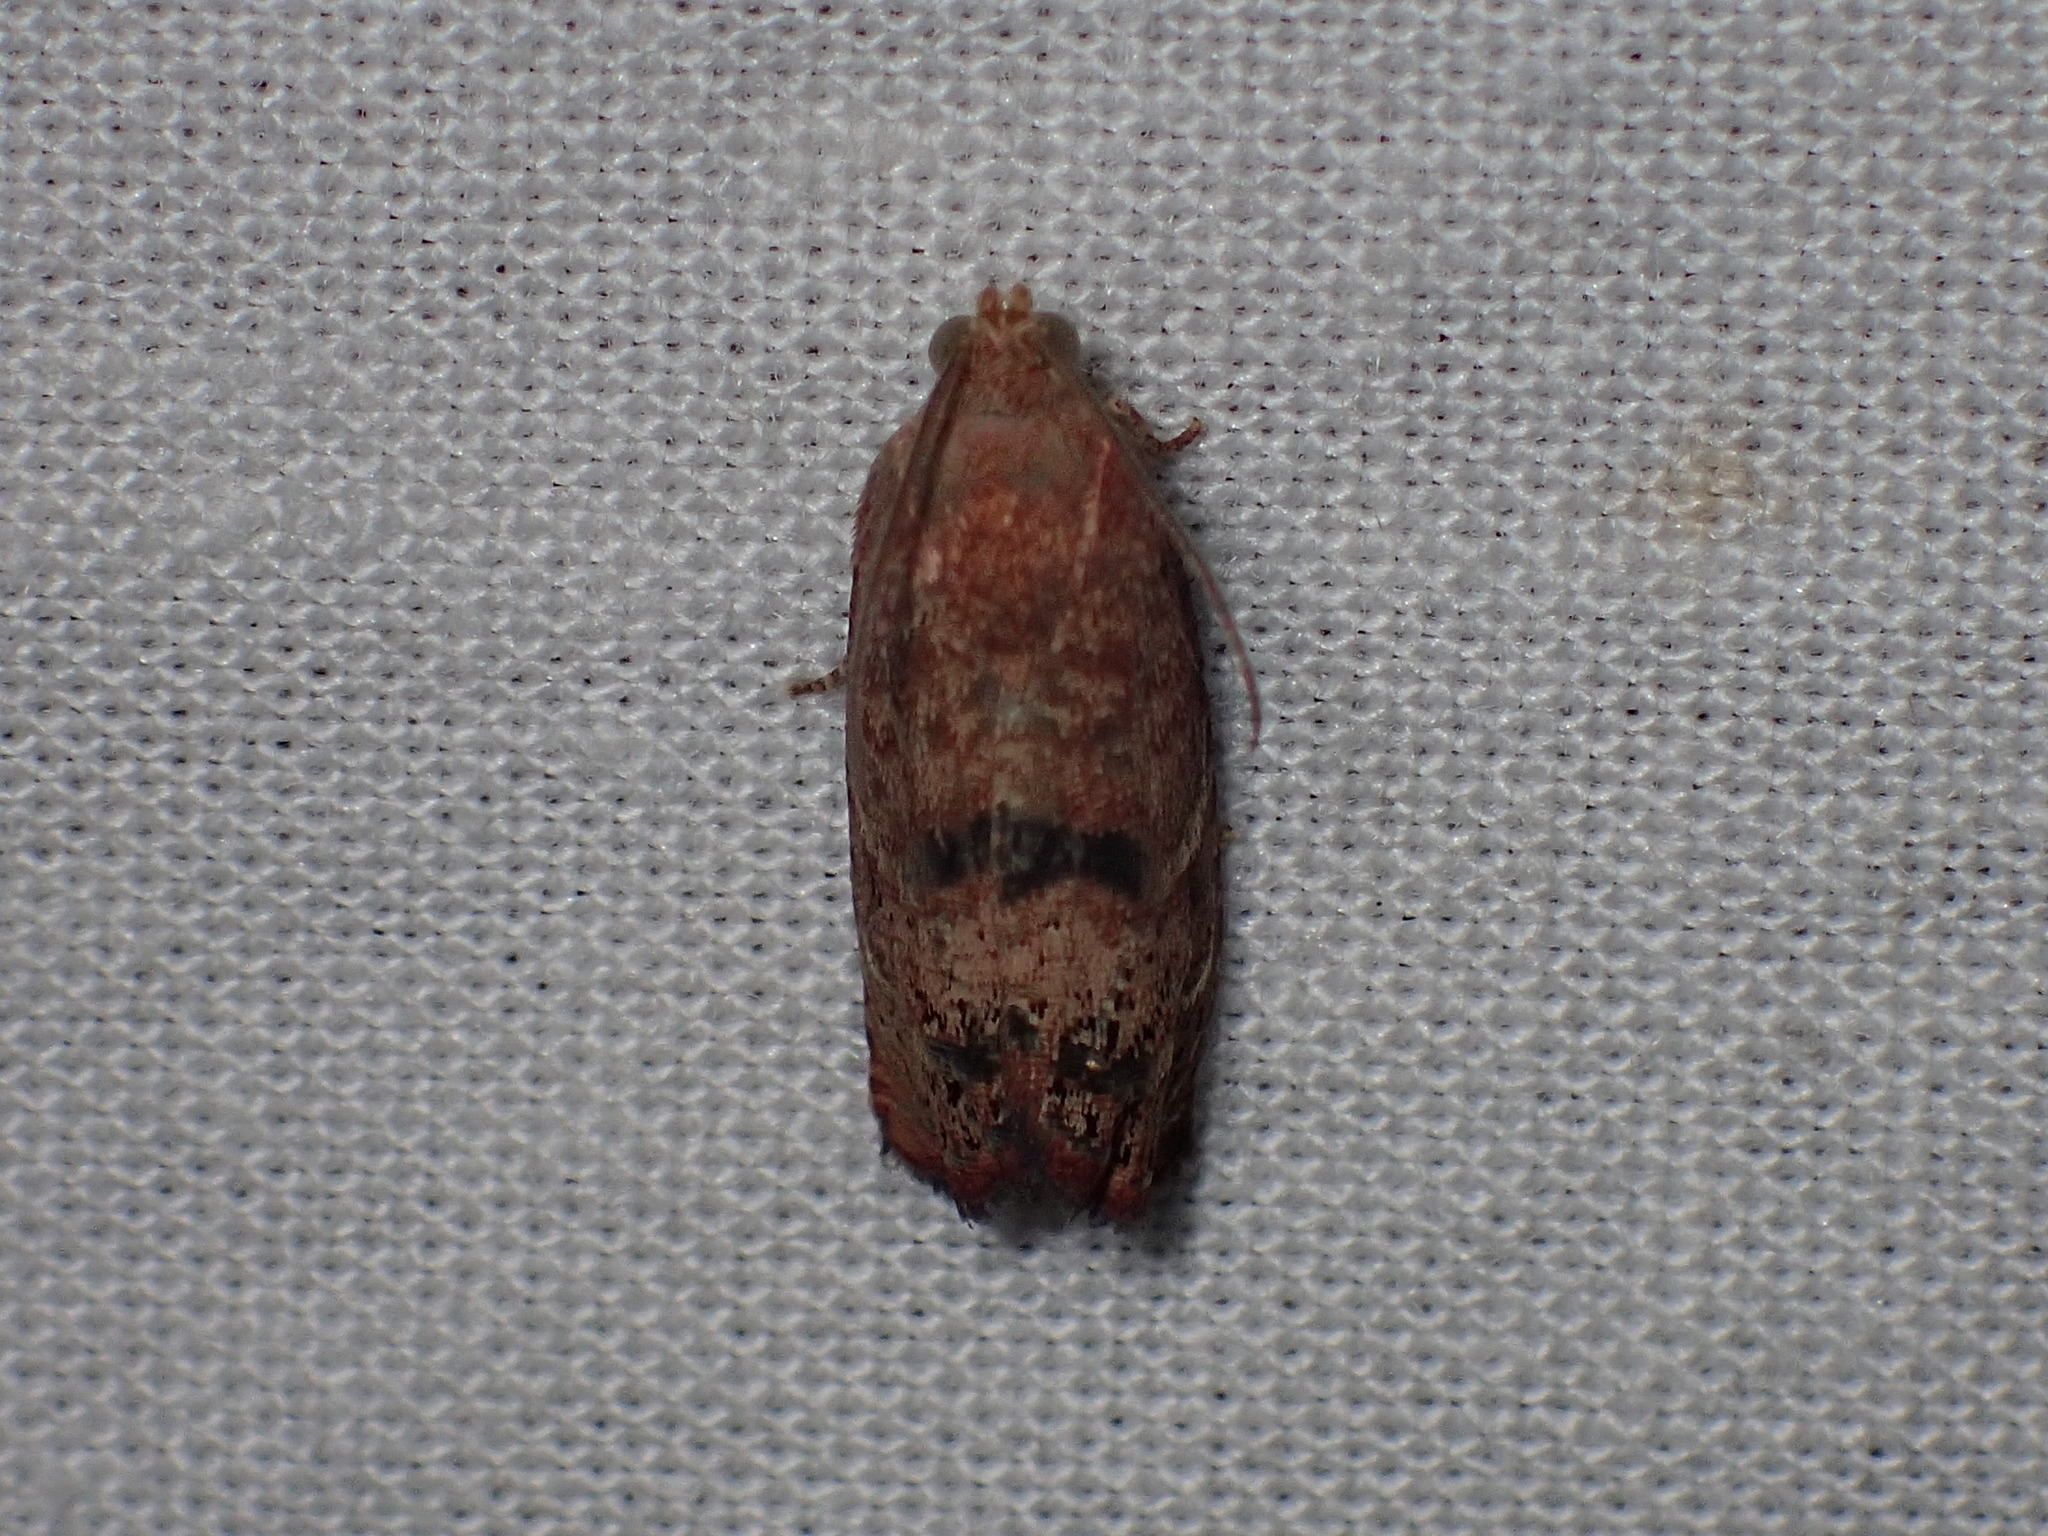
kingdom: Animalia
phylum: Arthropoda
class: Insecta
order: Lepidoptera
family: Tortricidae
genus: Cydia
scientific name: Cydia latiferreana
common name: Filbertworm moth
